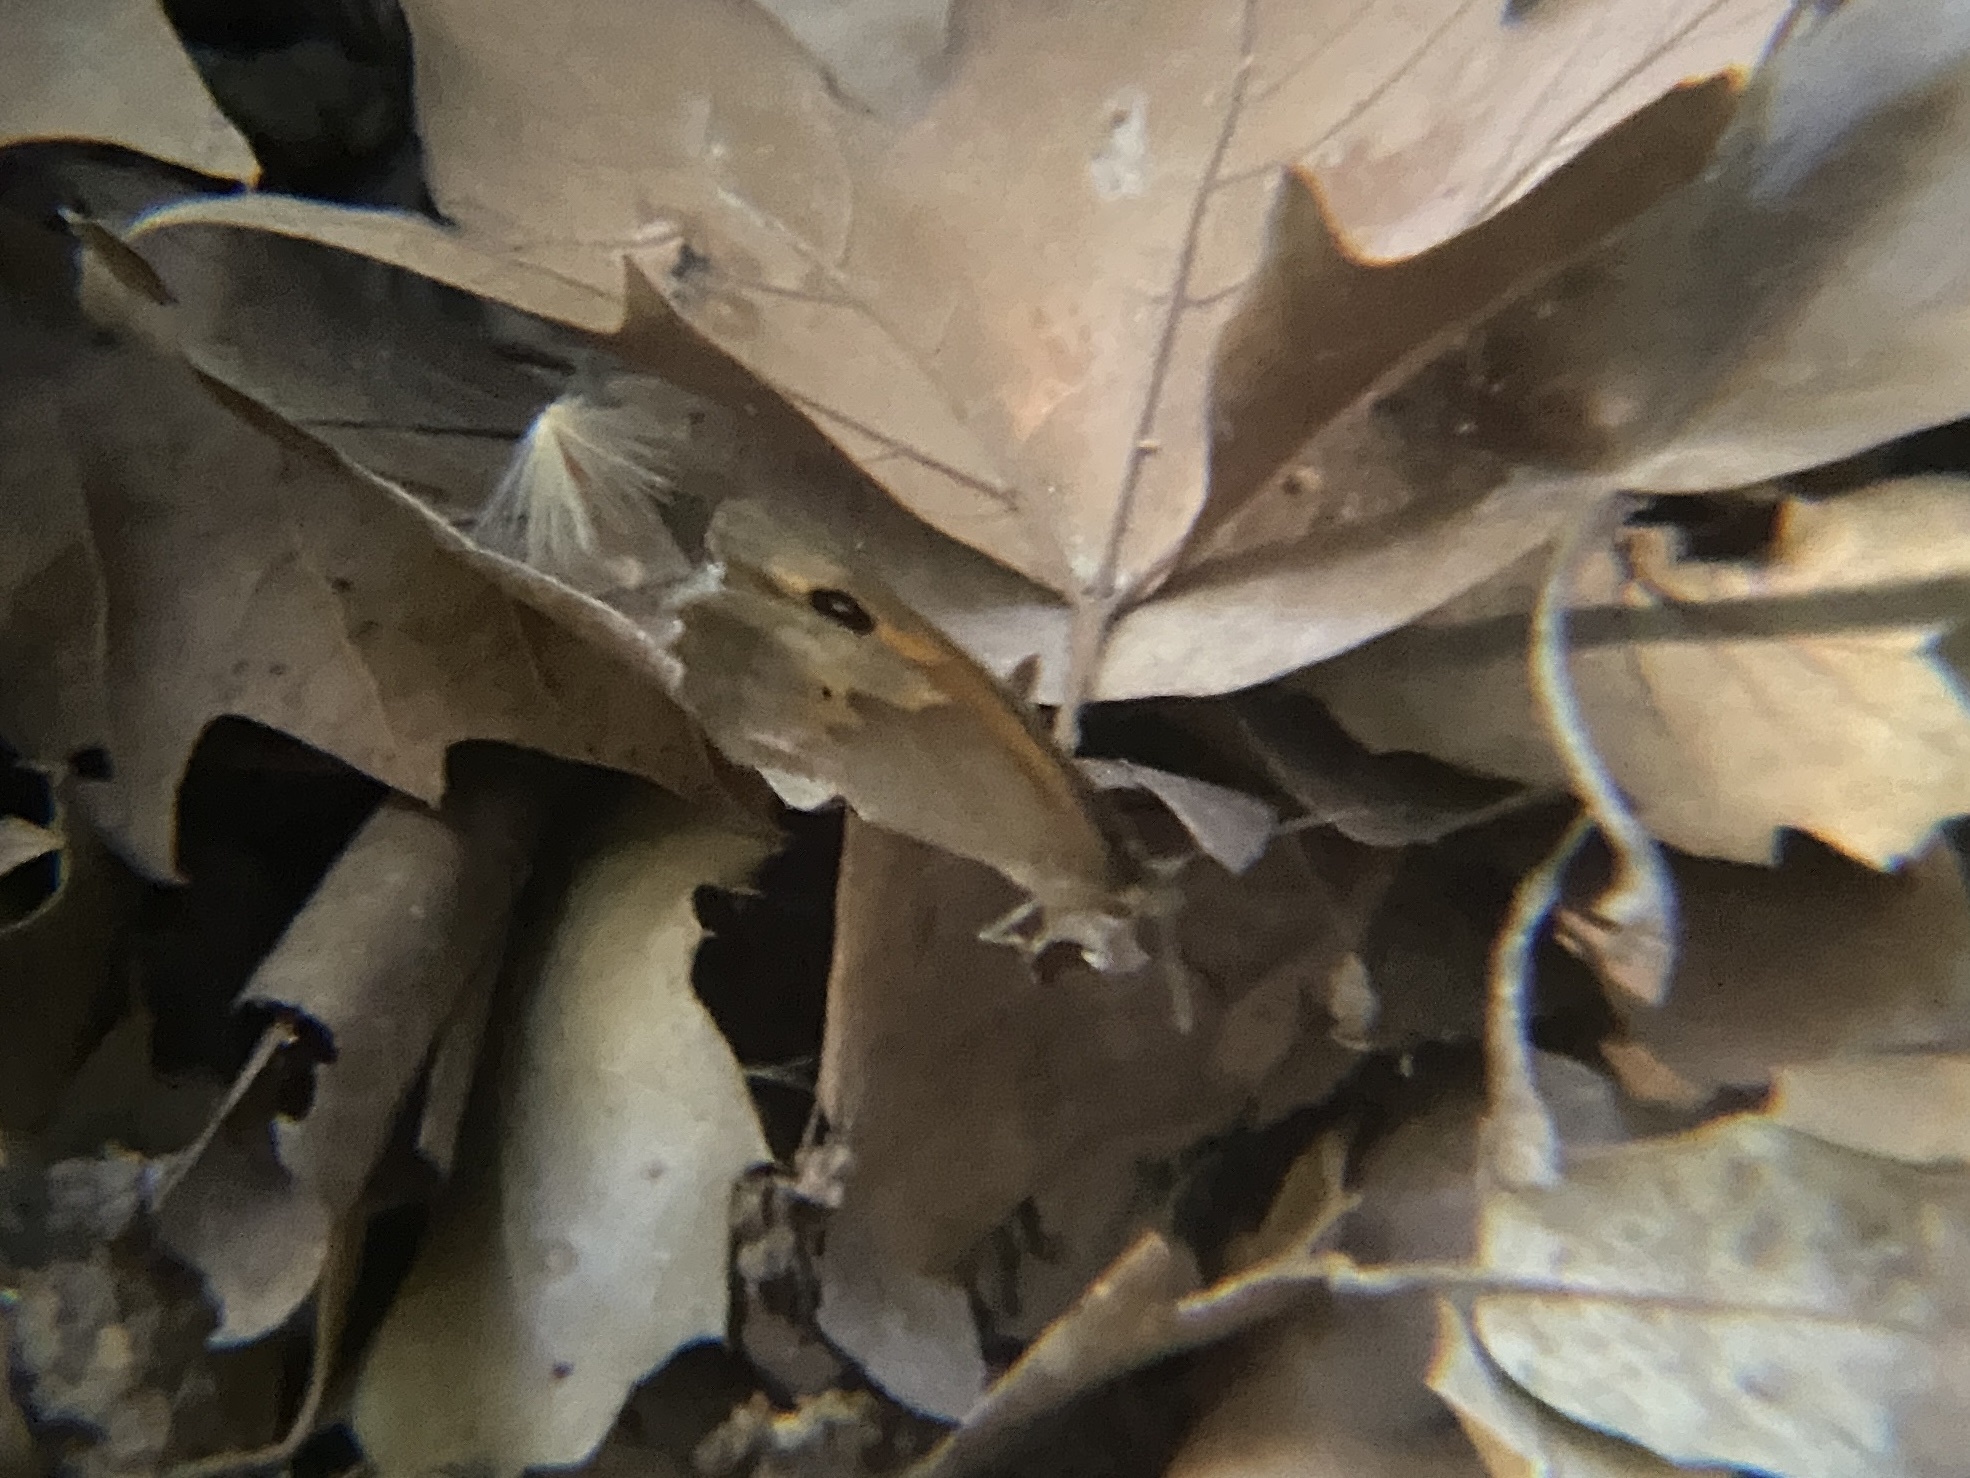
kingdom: Animalia
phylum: Arthropoda
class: Insecta
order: Lepidoptera
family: Nymphalidae
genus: Maniola
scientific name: Maniola jurtina
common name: Meadow brown
